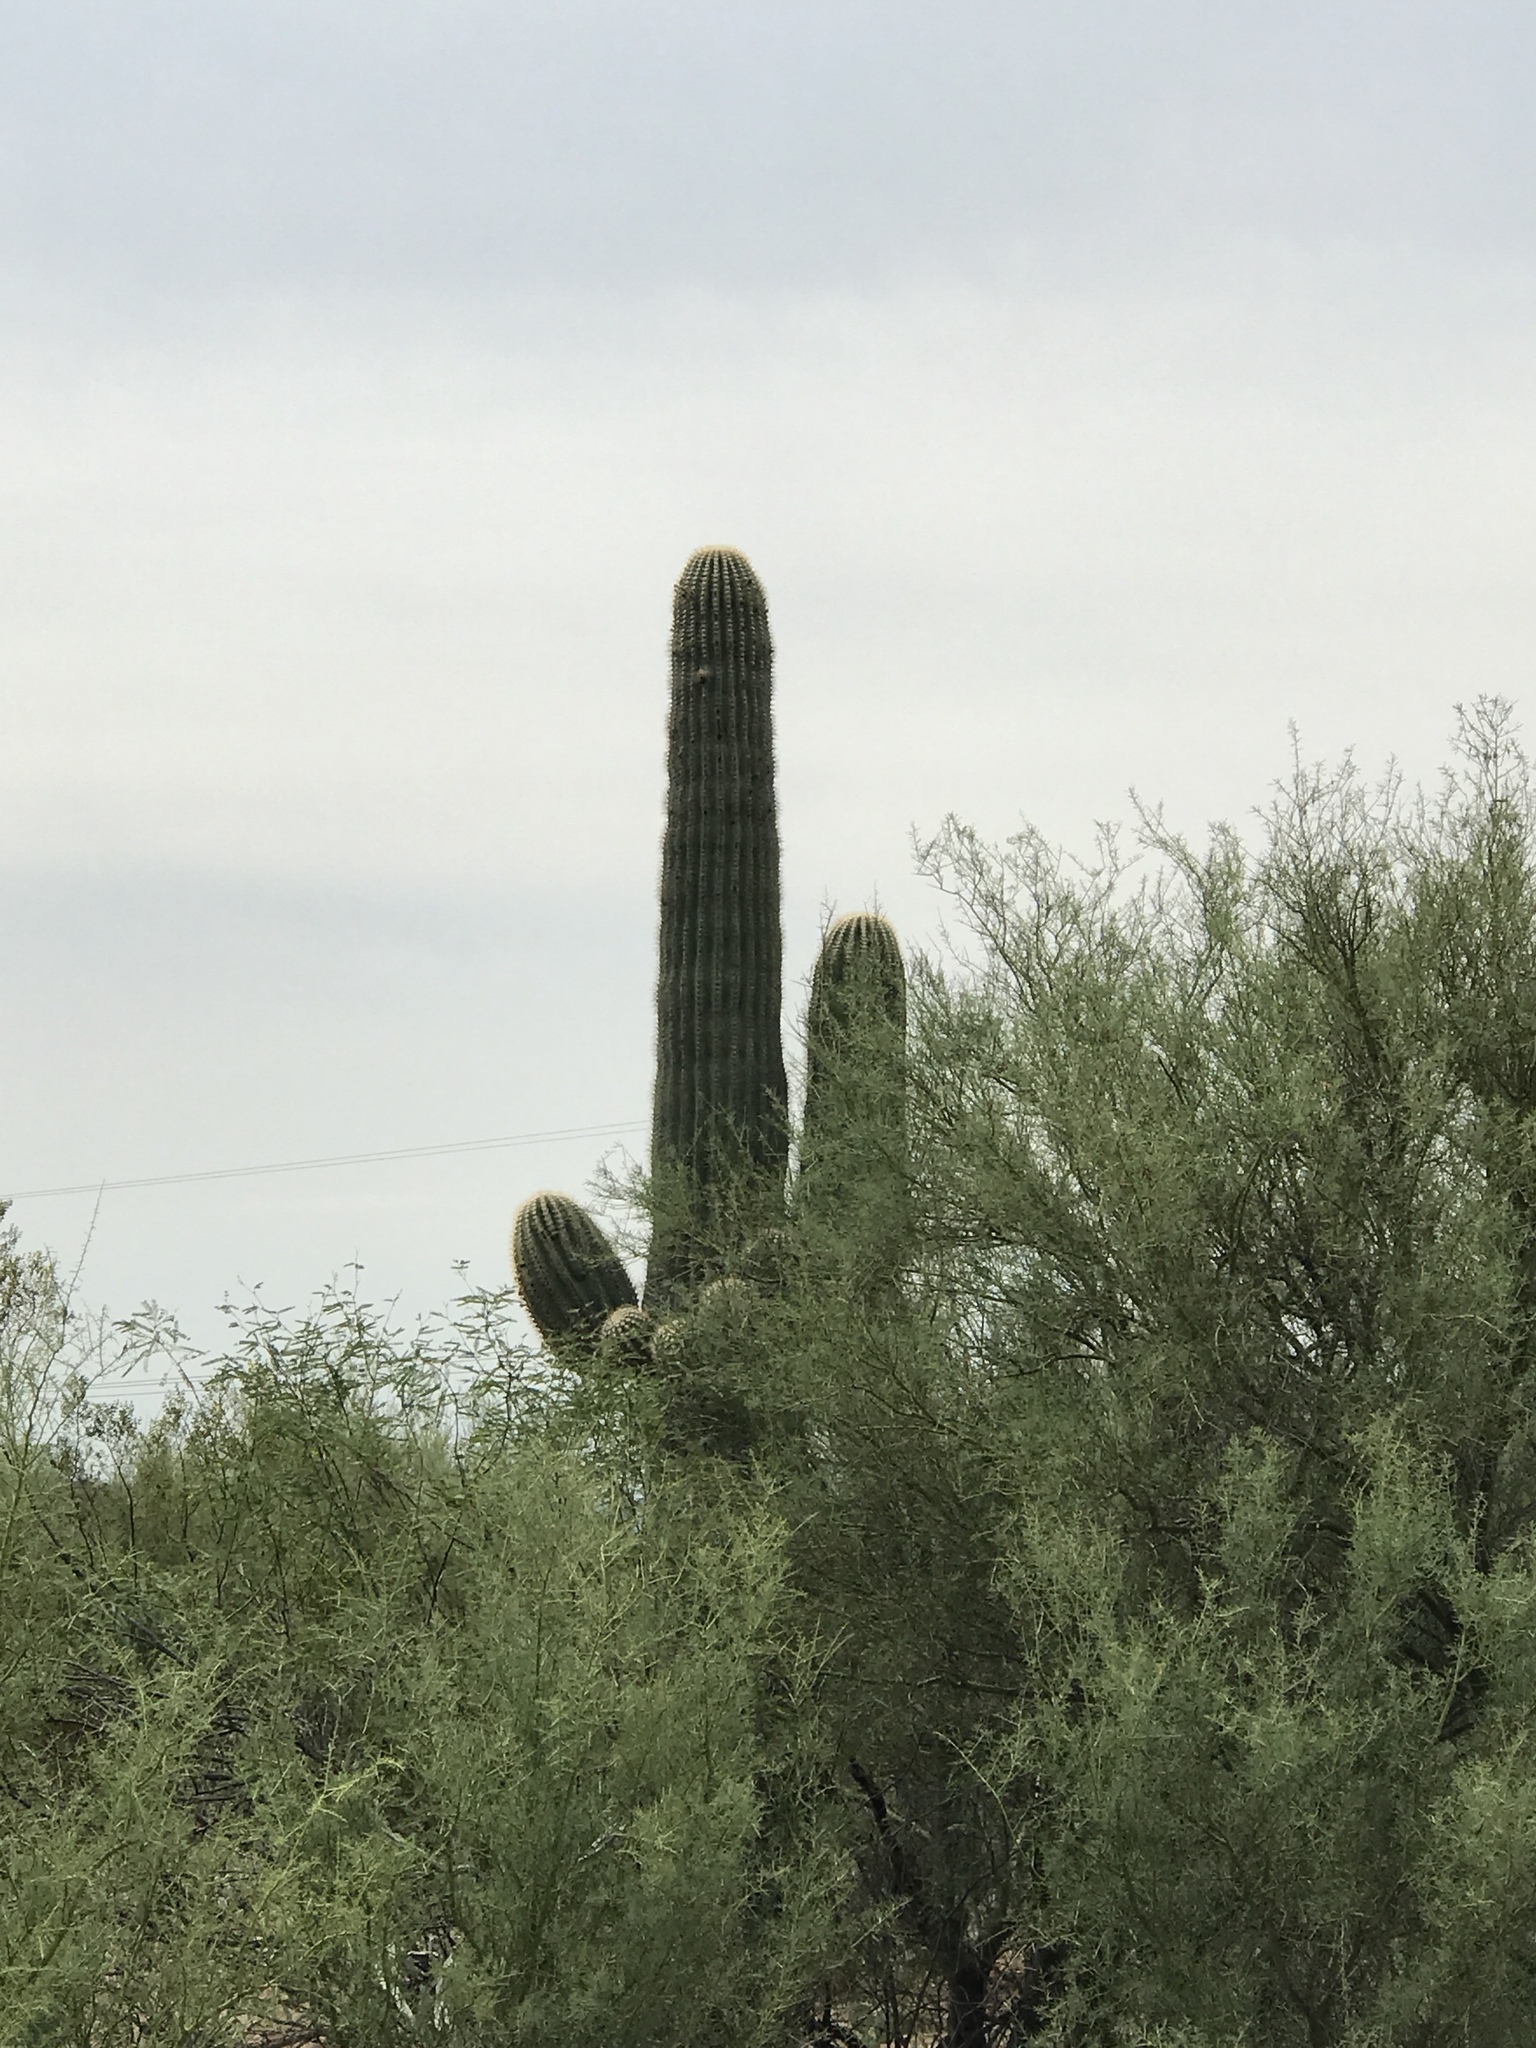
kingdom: Plantae
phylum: Tracheophyta
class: Magnoliopsida
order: Caryophyllales
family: Cactaceae
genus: Carnegiea
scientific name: Carnegiea gigantea
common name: Saguaro
